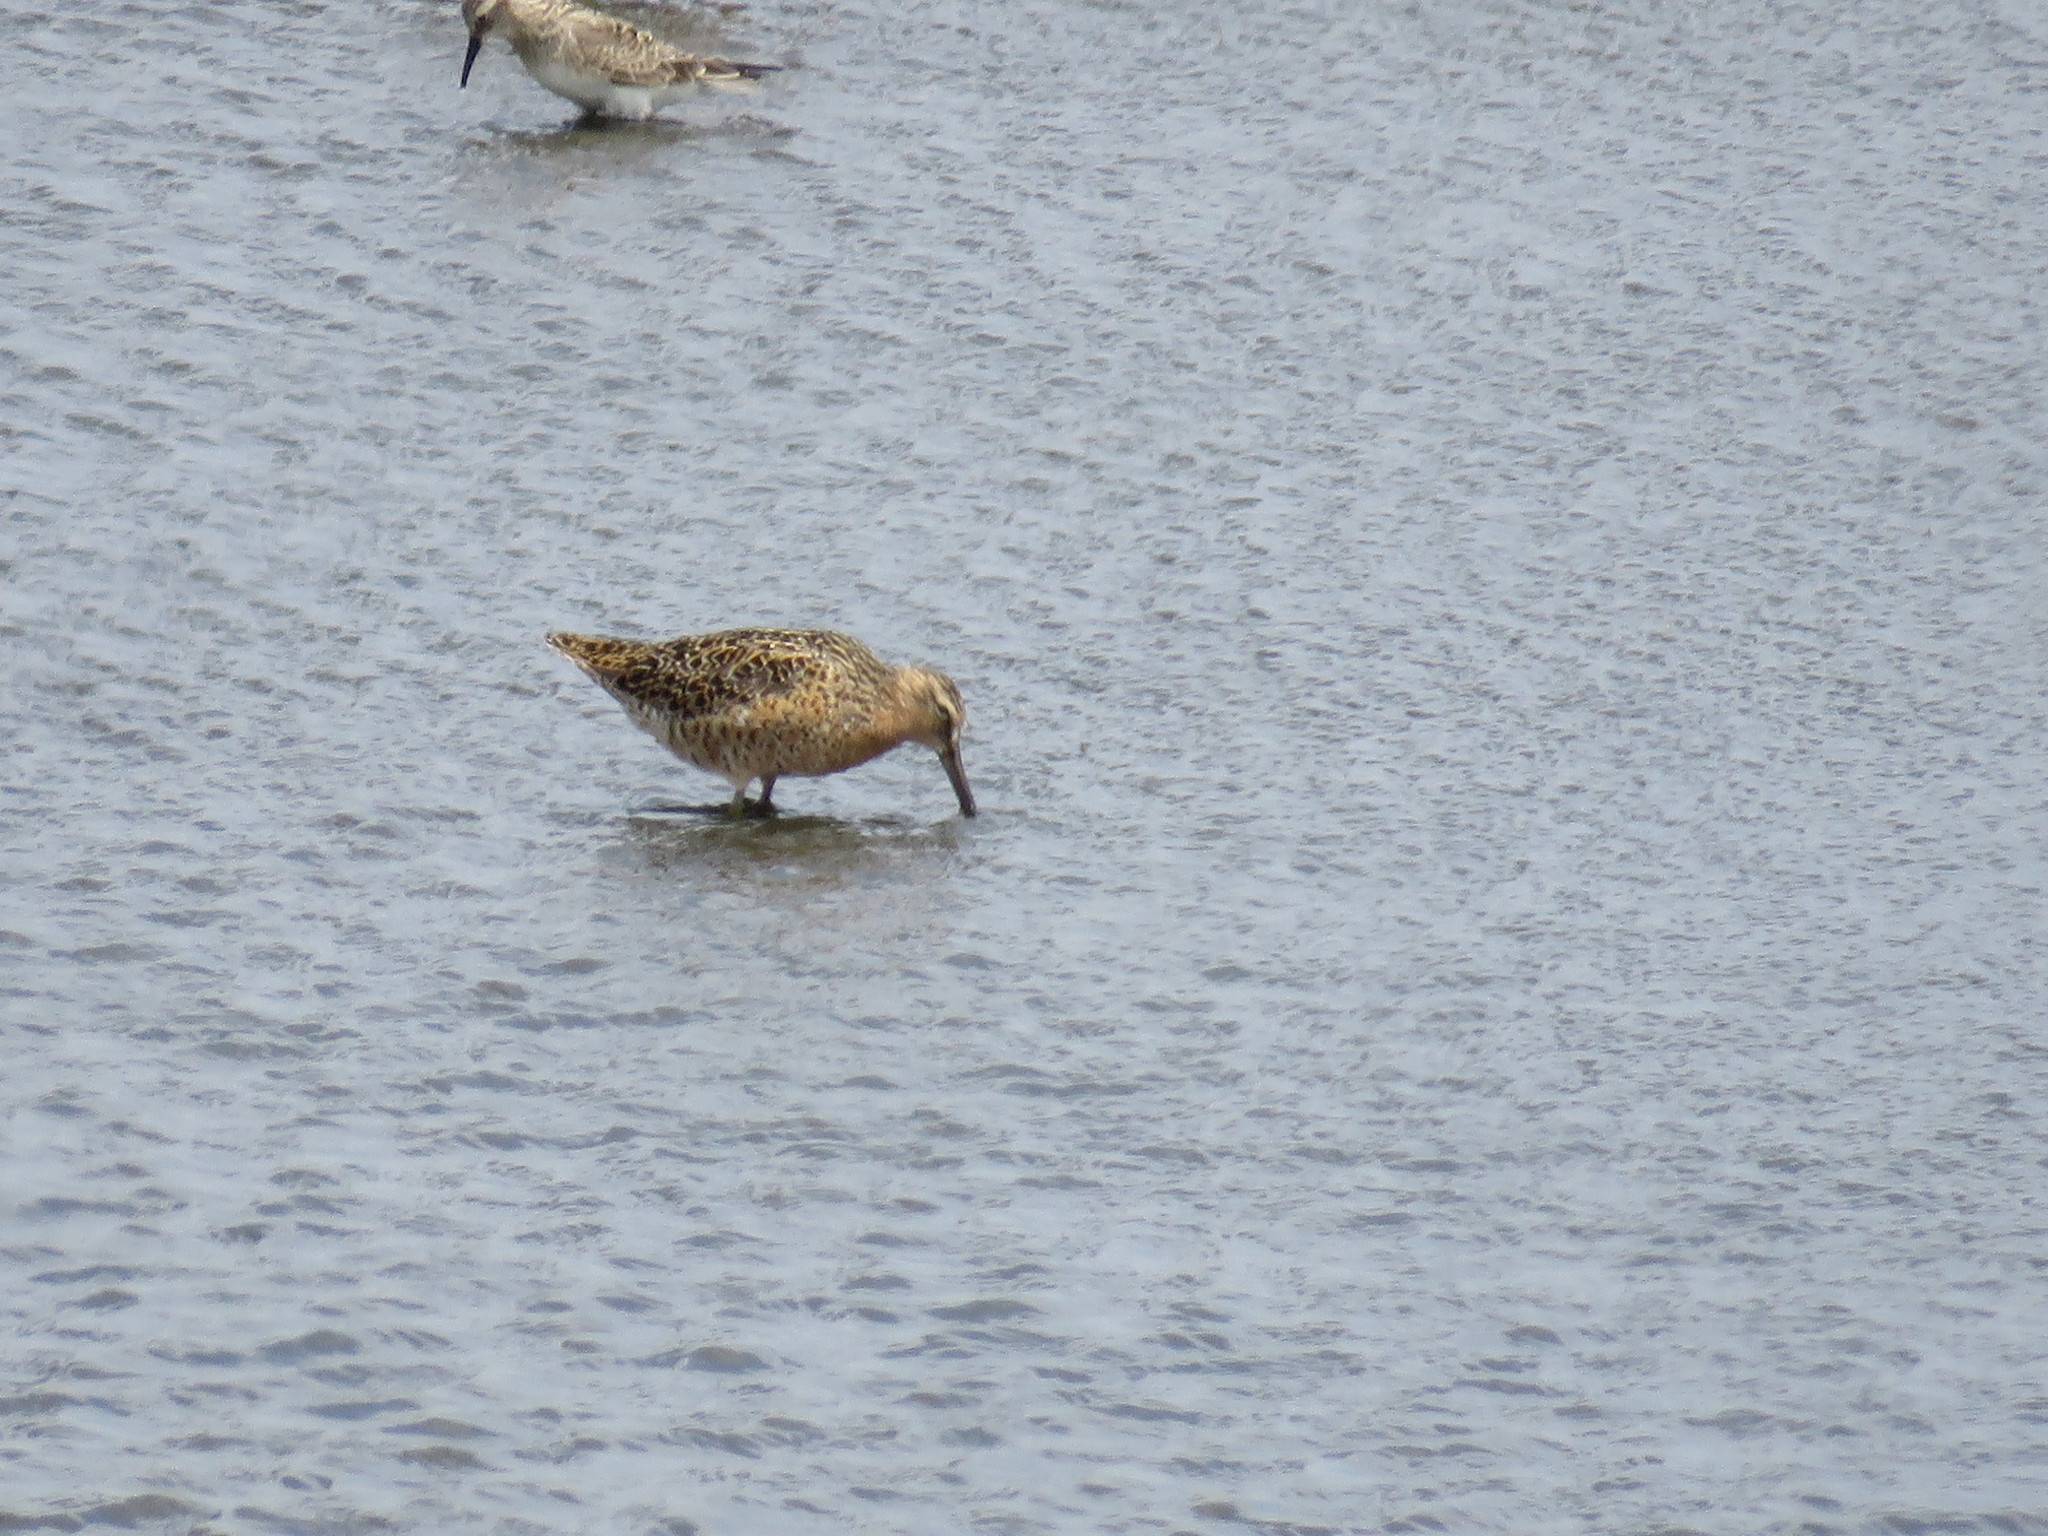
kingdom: Animalia
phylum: Chordata
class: Aves
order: Charadriiformes
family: Scolopacidae
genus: Limnodromus
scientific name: Limnodromus griseus
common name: Short-billed dowitcher
